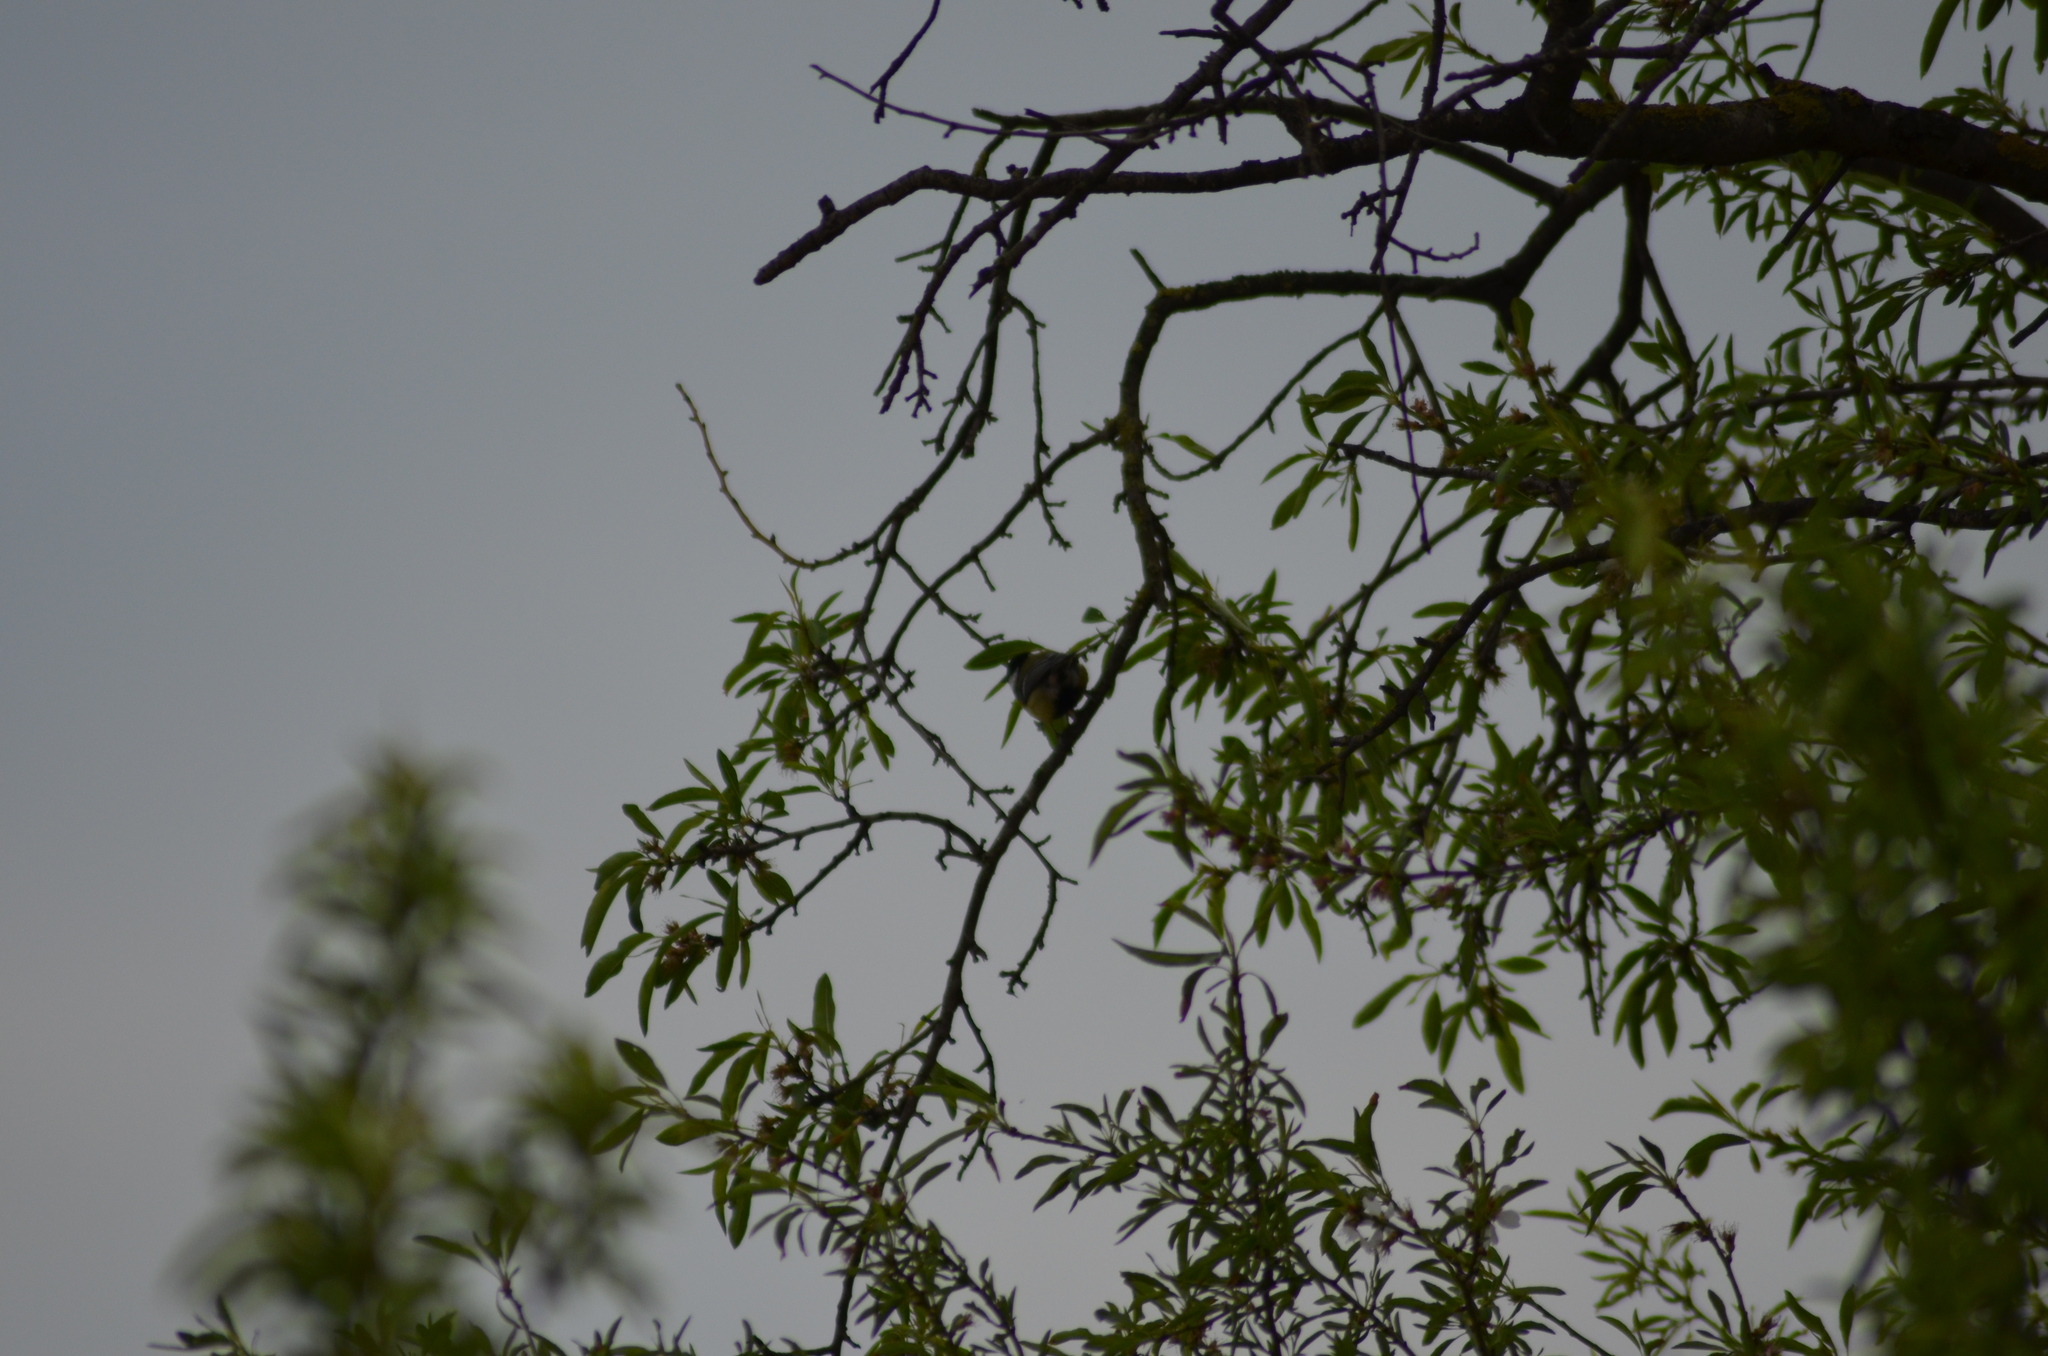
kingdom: Animalia
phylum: Chordata
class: Aves
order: Passeriformes
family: Paridae
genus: Parus
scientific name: Parus major
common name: Great tit
